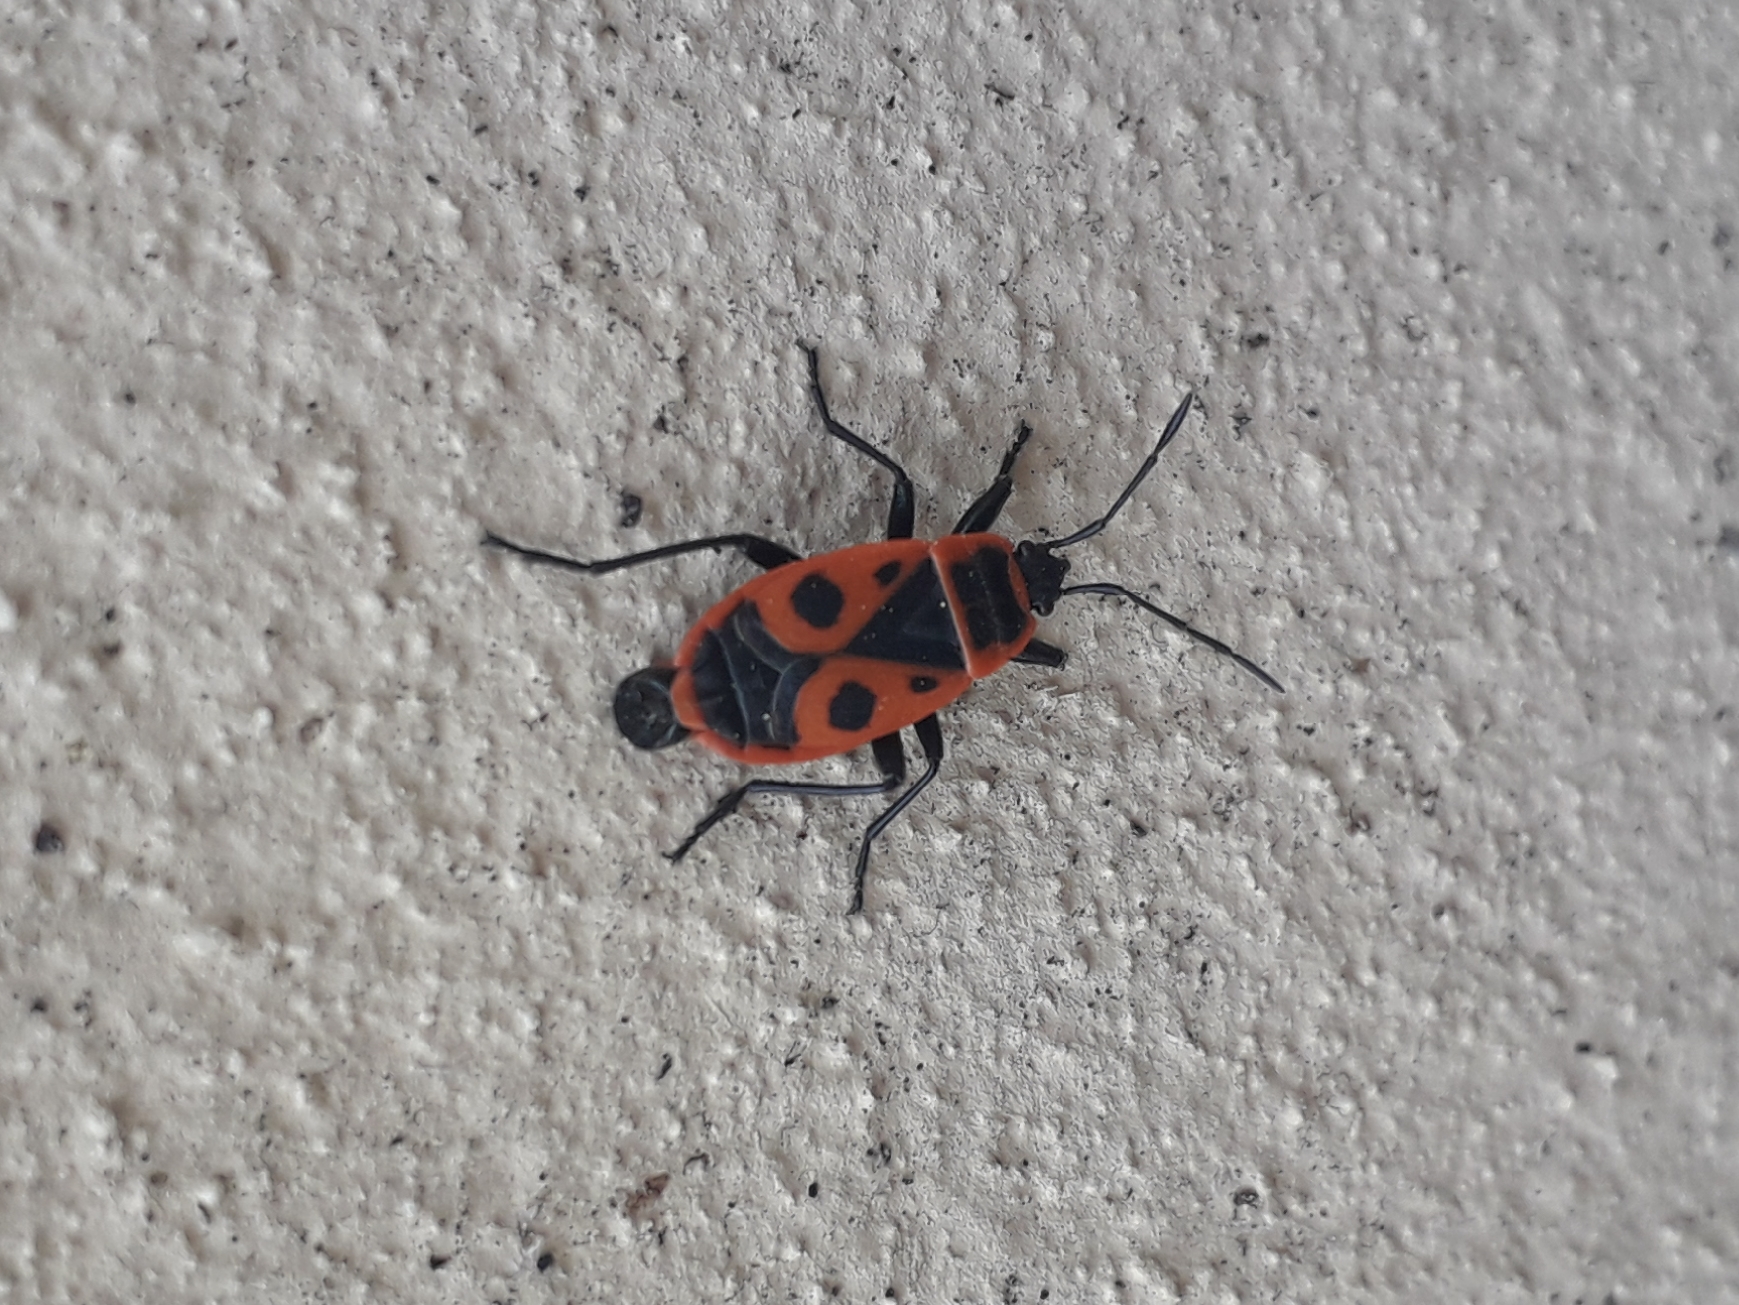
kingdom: Animalia
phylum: Arthropoda
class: Insecta
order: Hemiptera
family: Pyrrhocoridae
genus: Pyrrhocoris
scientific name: Pyrrhocoris apterus
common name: Firebug
